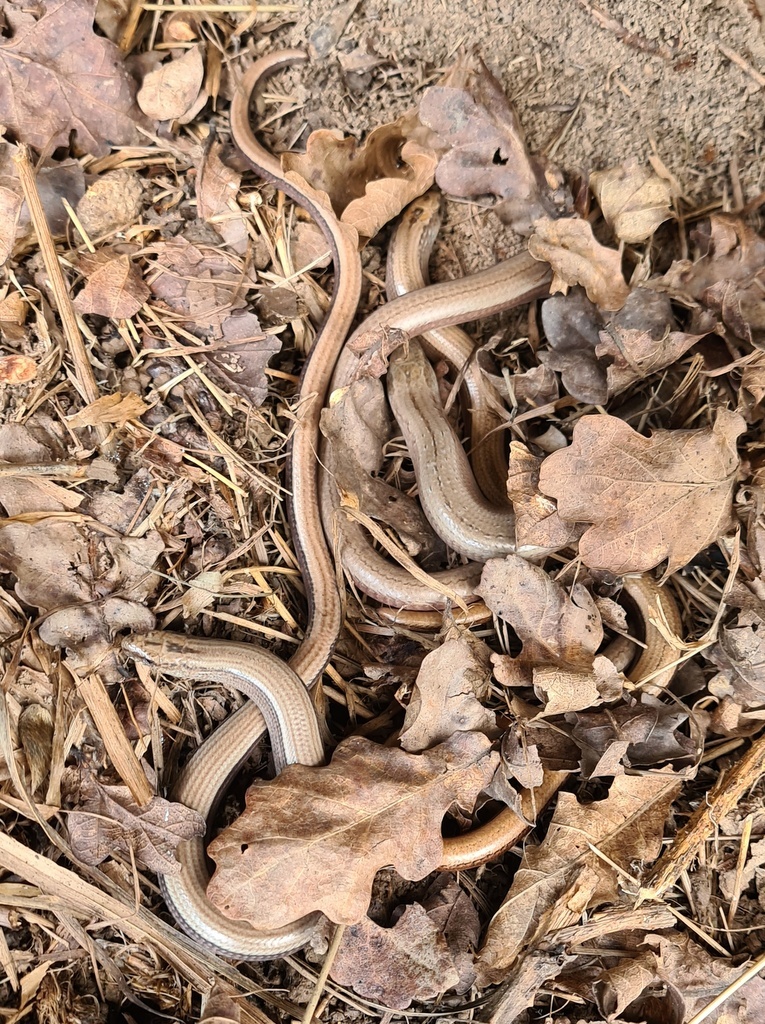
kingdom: Animalia
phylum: Chordata
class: Squamata
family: Anguidae
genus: Anguis
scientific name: Anguis fragilis
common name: Slow worm
